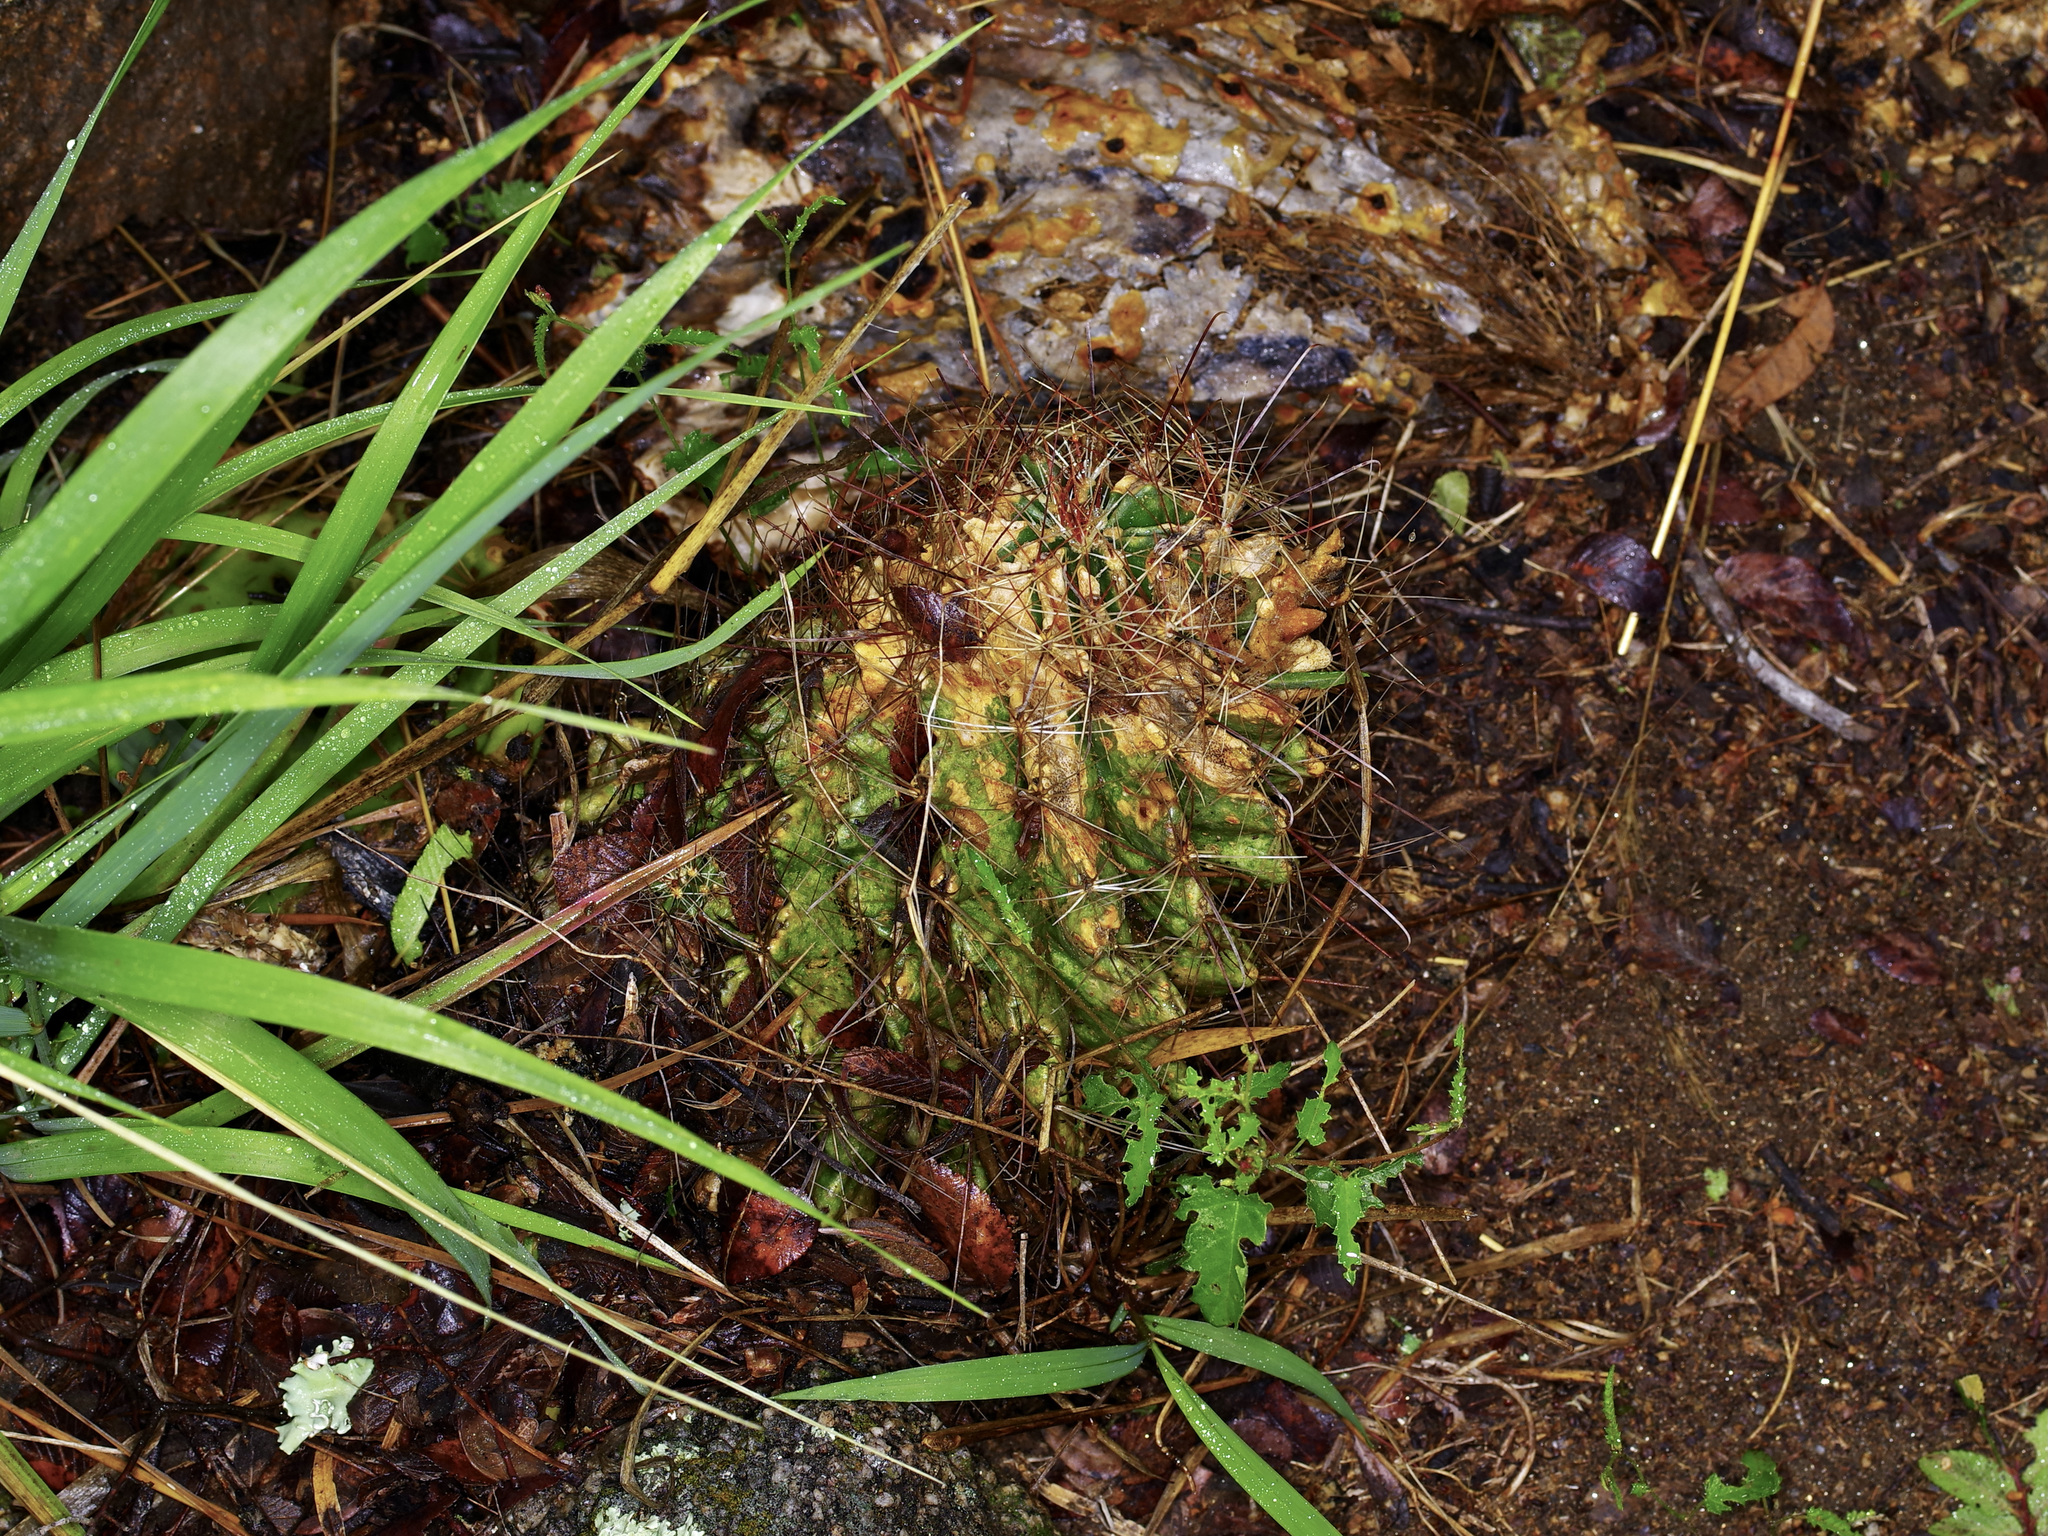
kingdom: Plantae
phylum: Tracheophyta
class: Magnoliopsida
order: Caryophyllales
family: Cactaceae
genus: Thelocactus
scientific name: Thelocactus setispinus
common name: Miniature barrel cactus
